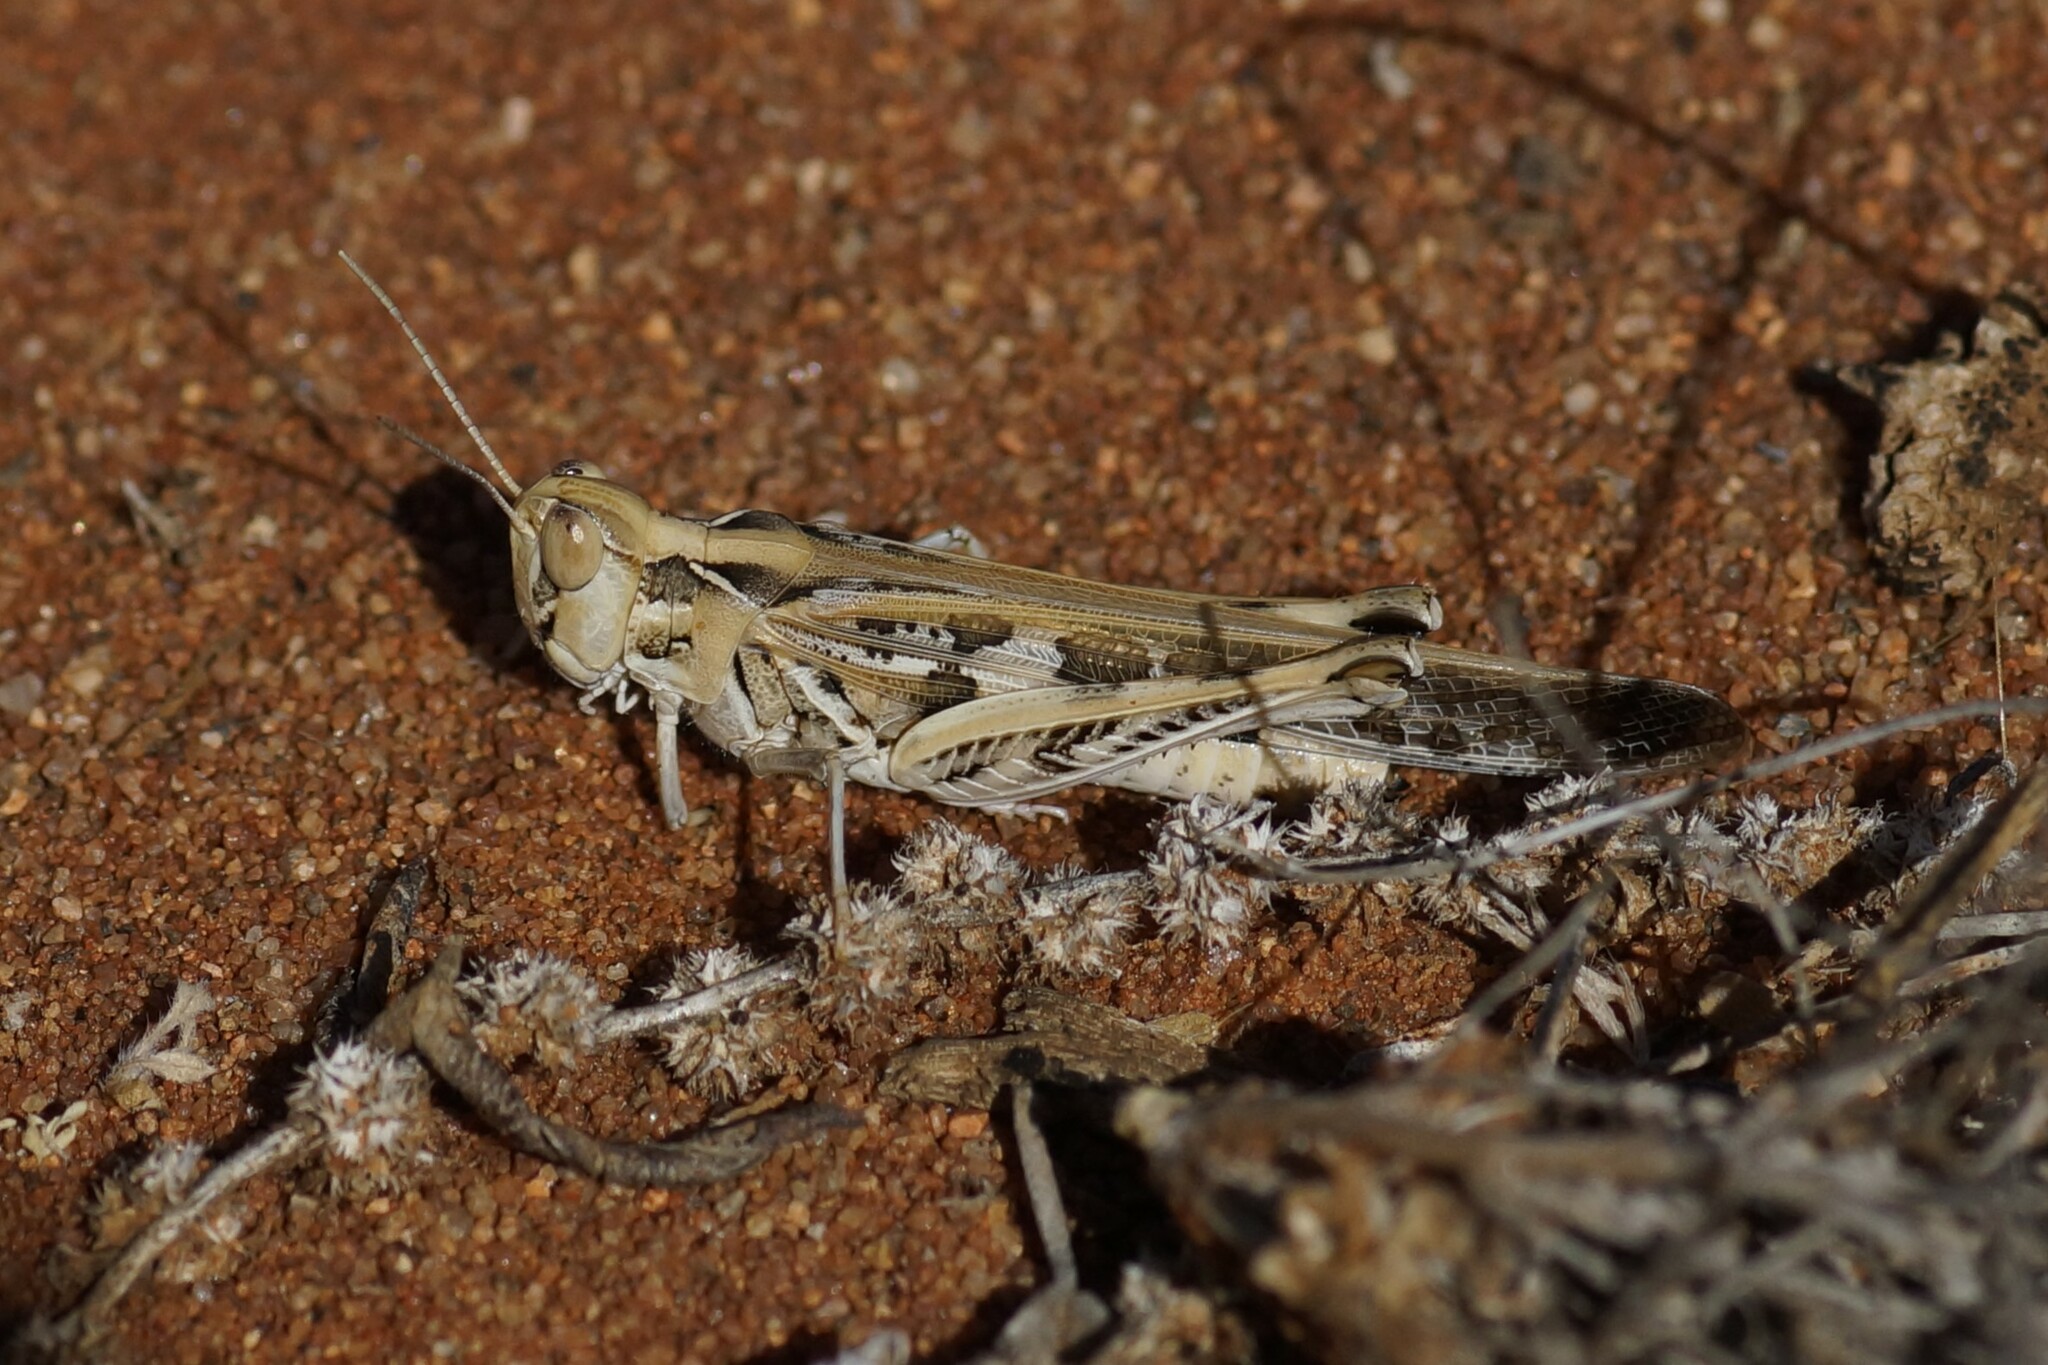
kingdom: Animalia
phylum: Arthropoda
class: Insecta
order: Orthoptera
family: Acrididae
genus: Chortoicetes
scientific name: Chortoicetes terminifera
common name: Australian plague locust
